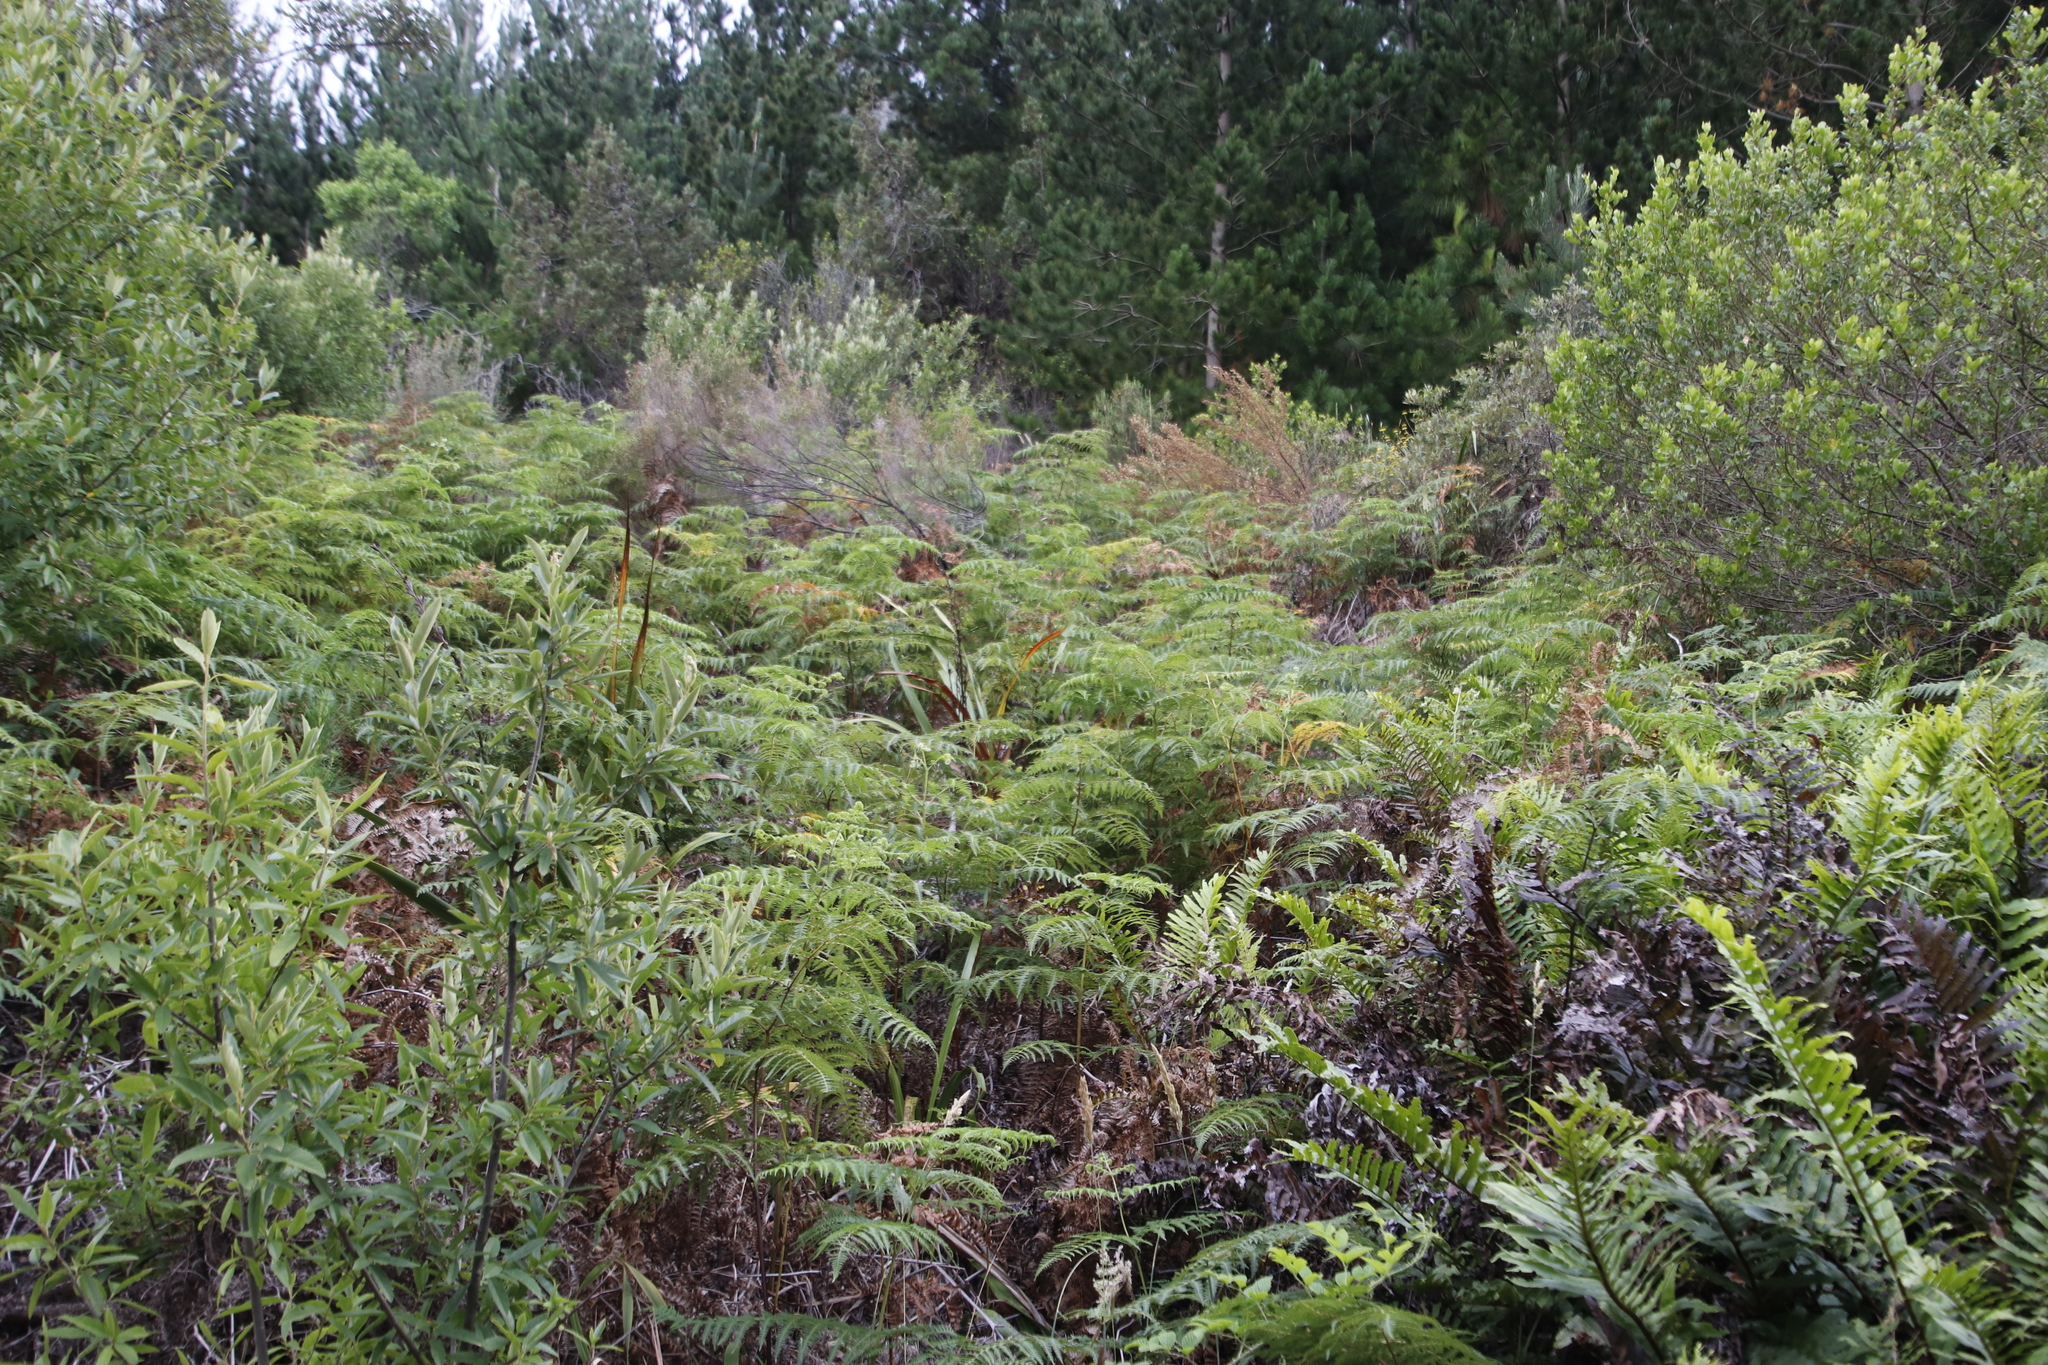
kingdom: Plantae
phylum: Tracheophyta
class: Polypodiopsida
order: Polypodiales
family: Dennstaedtiaceae
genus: Pteridium
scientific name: Pteridium aquilinum
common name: Bracken
